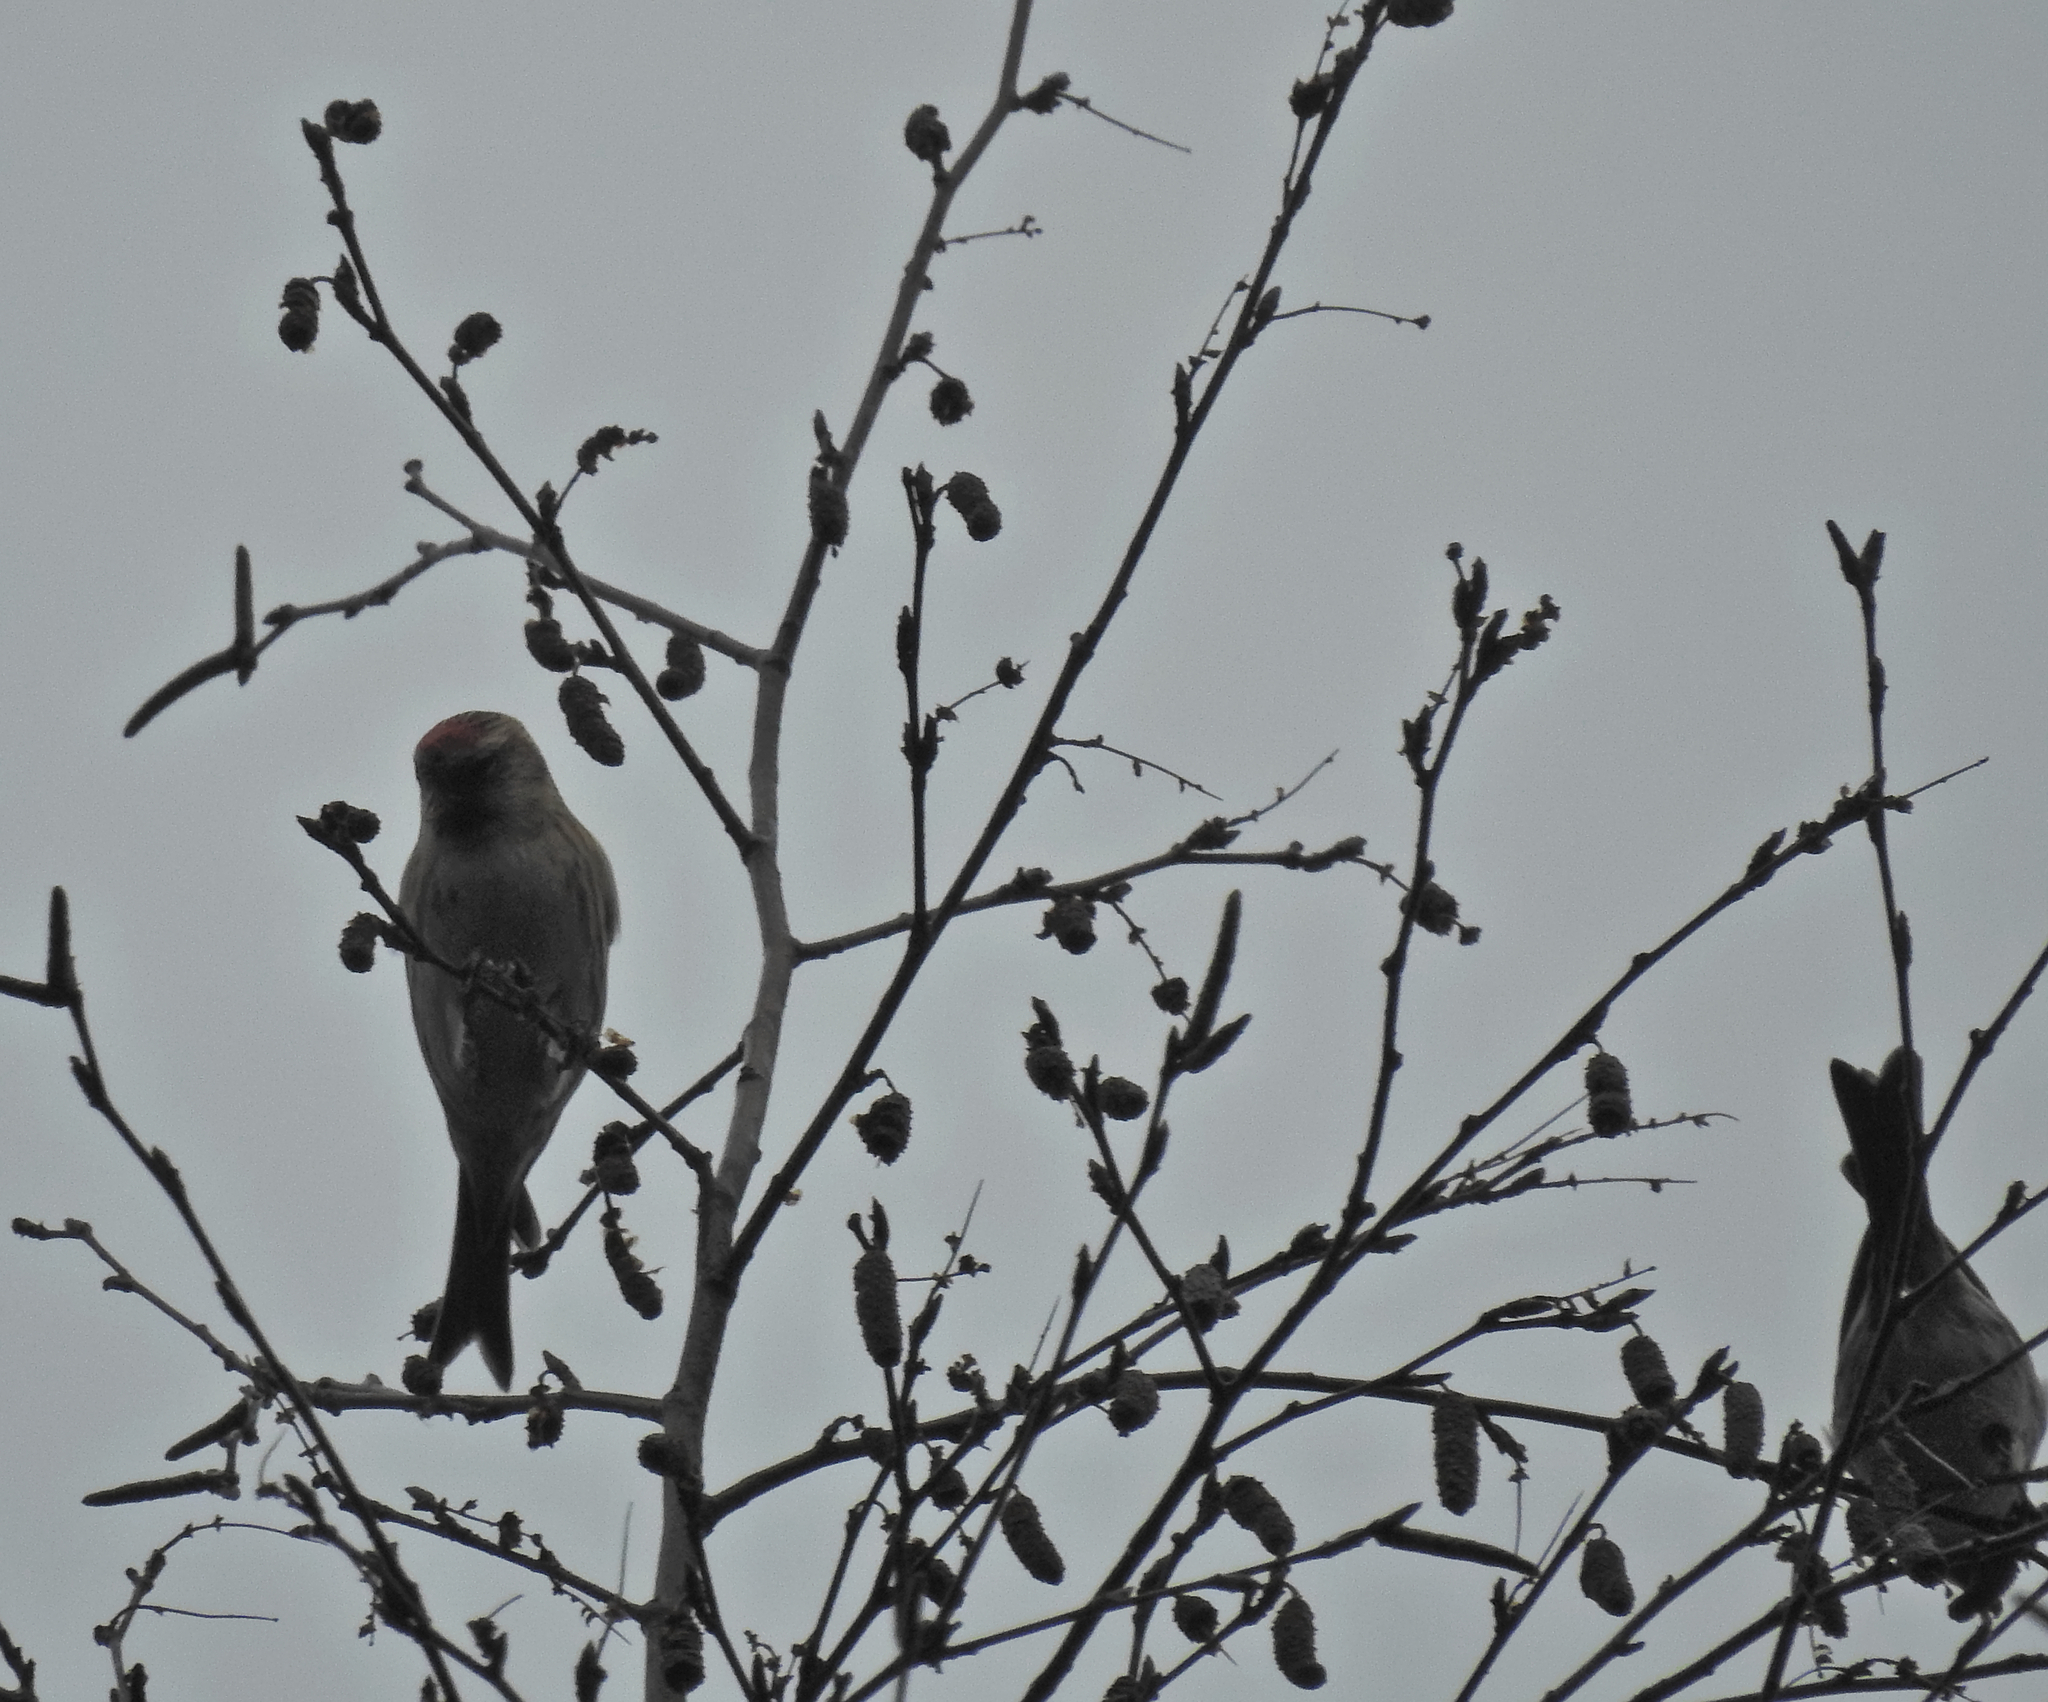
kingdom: Animalia
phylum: Chordata
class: Aves
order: Passeriformes
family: Fringillidae
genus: Acanthis
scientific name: Acanthis flammea
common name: Common redpoll
